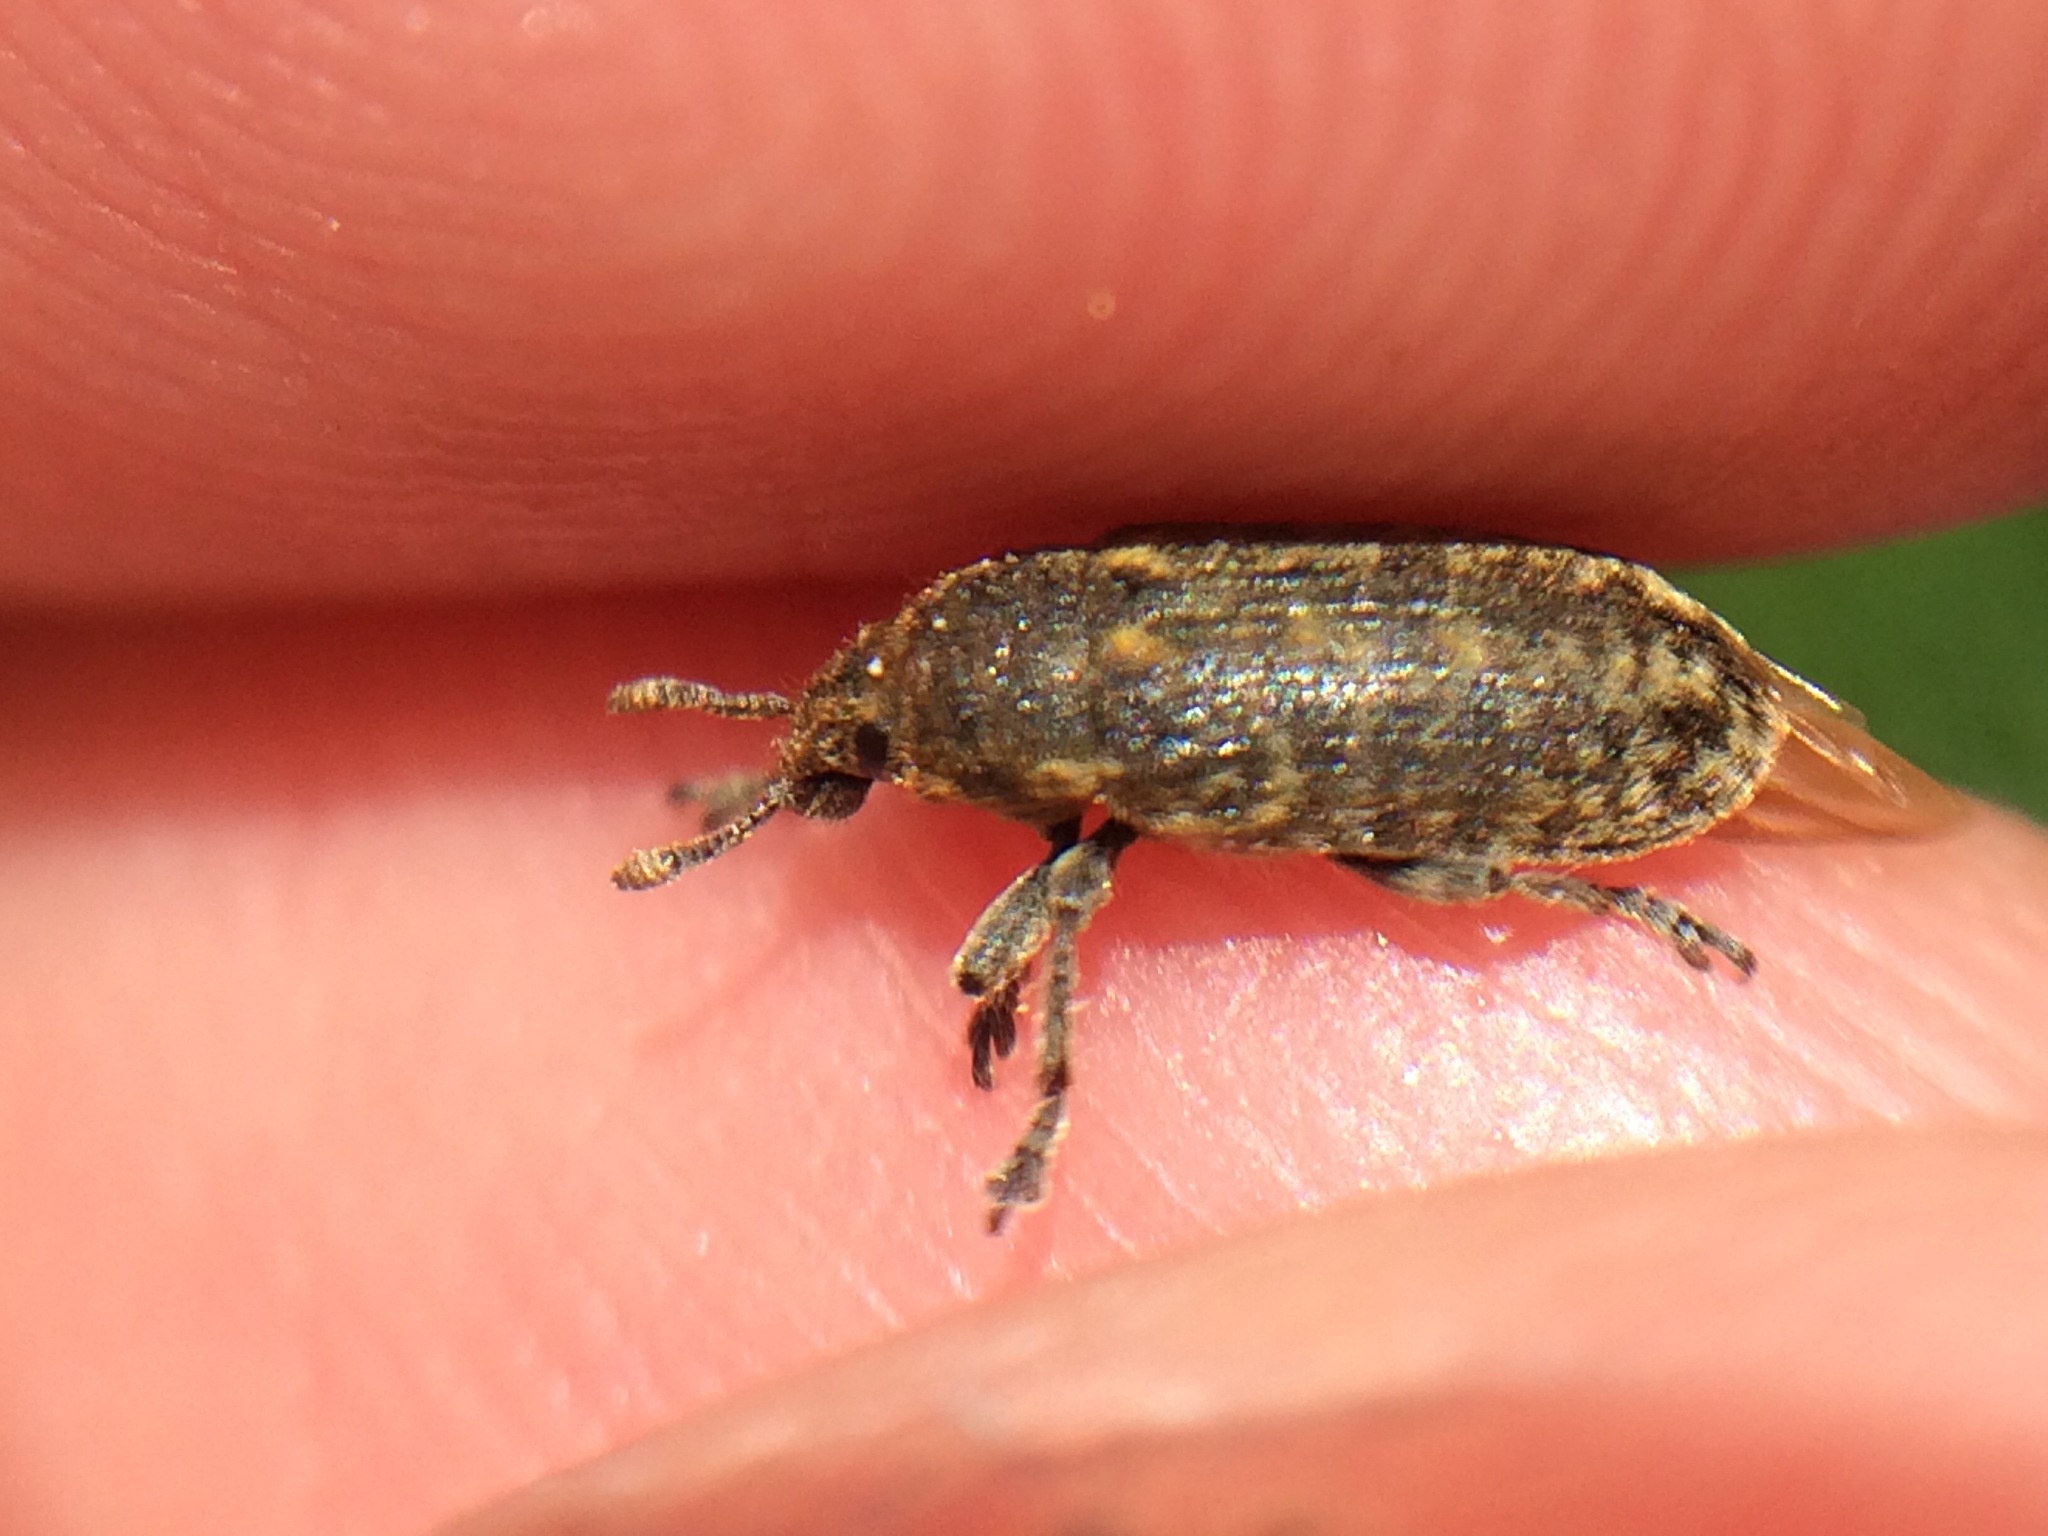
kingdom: Animalia
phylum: Arthropoda
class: Insecta
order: Coleoptera
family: Curculionidae
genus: Rhinocyllus
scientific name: Rhinocyllus conicus
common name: Weevil
